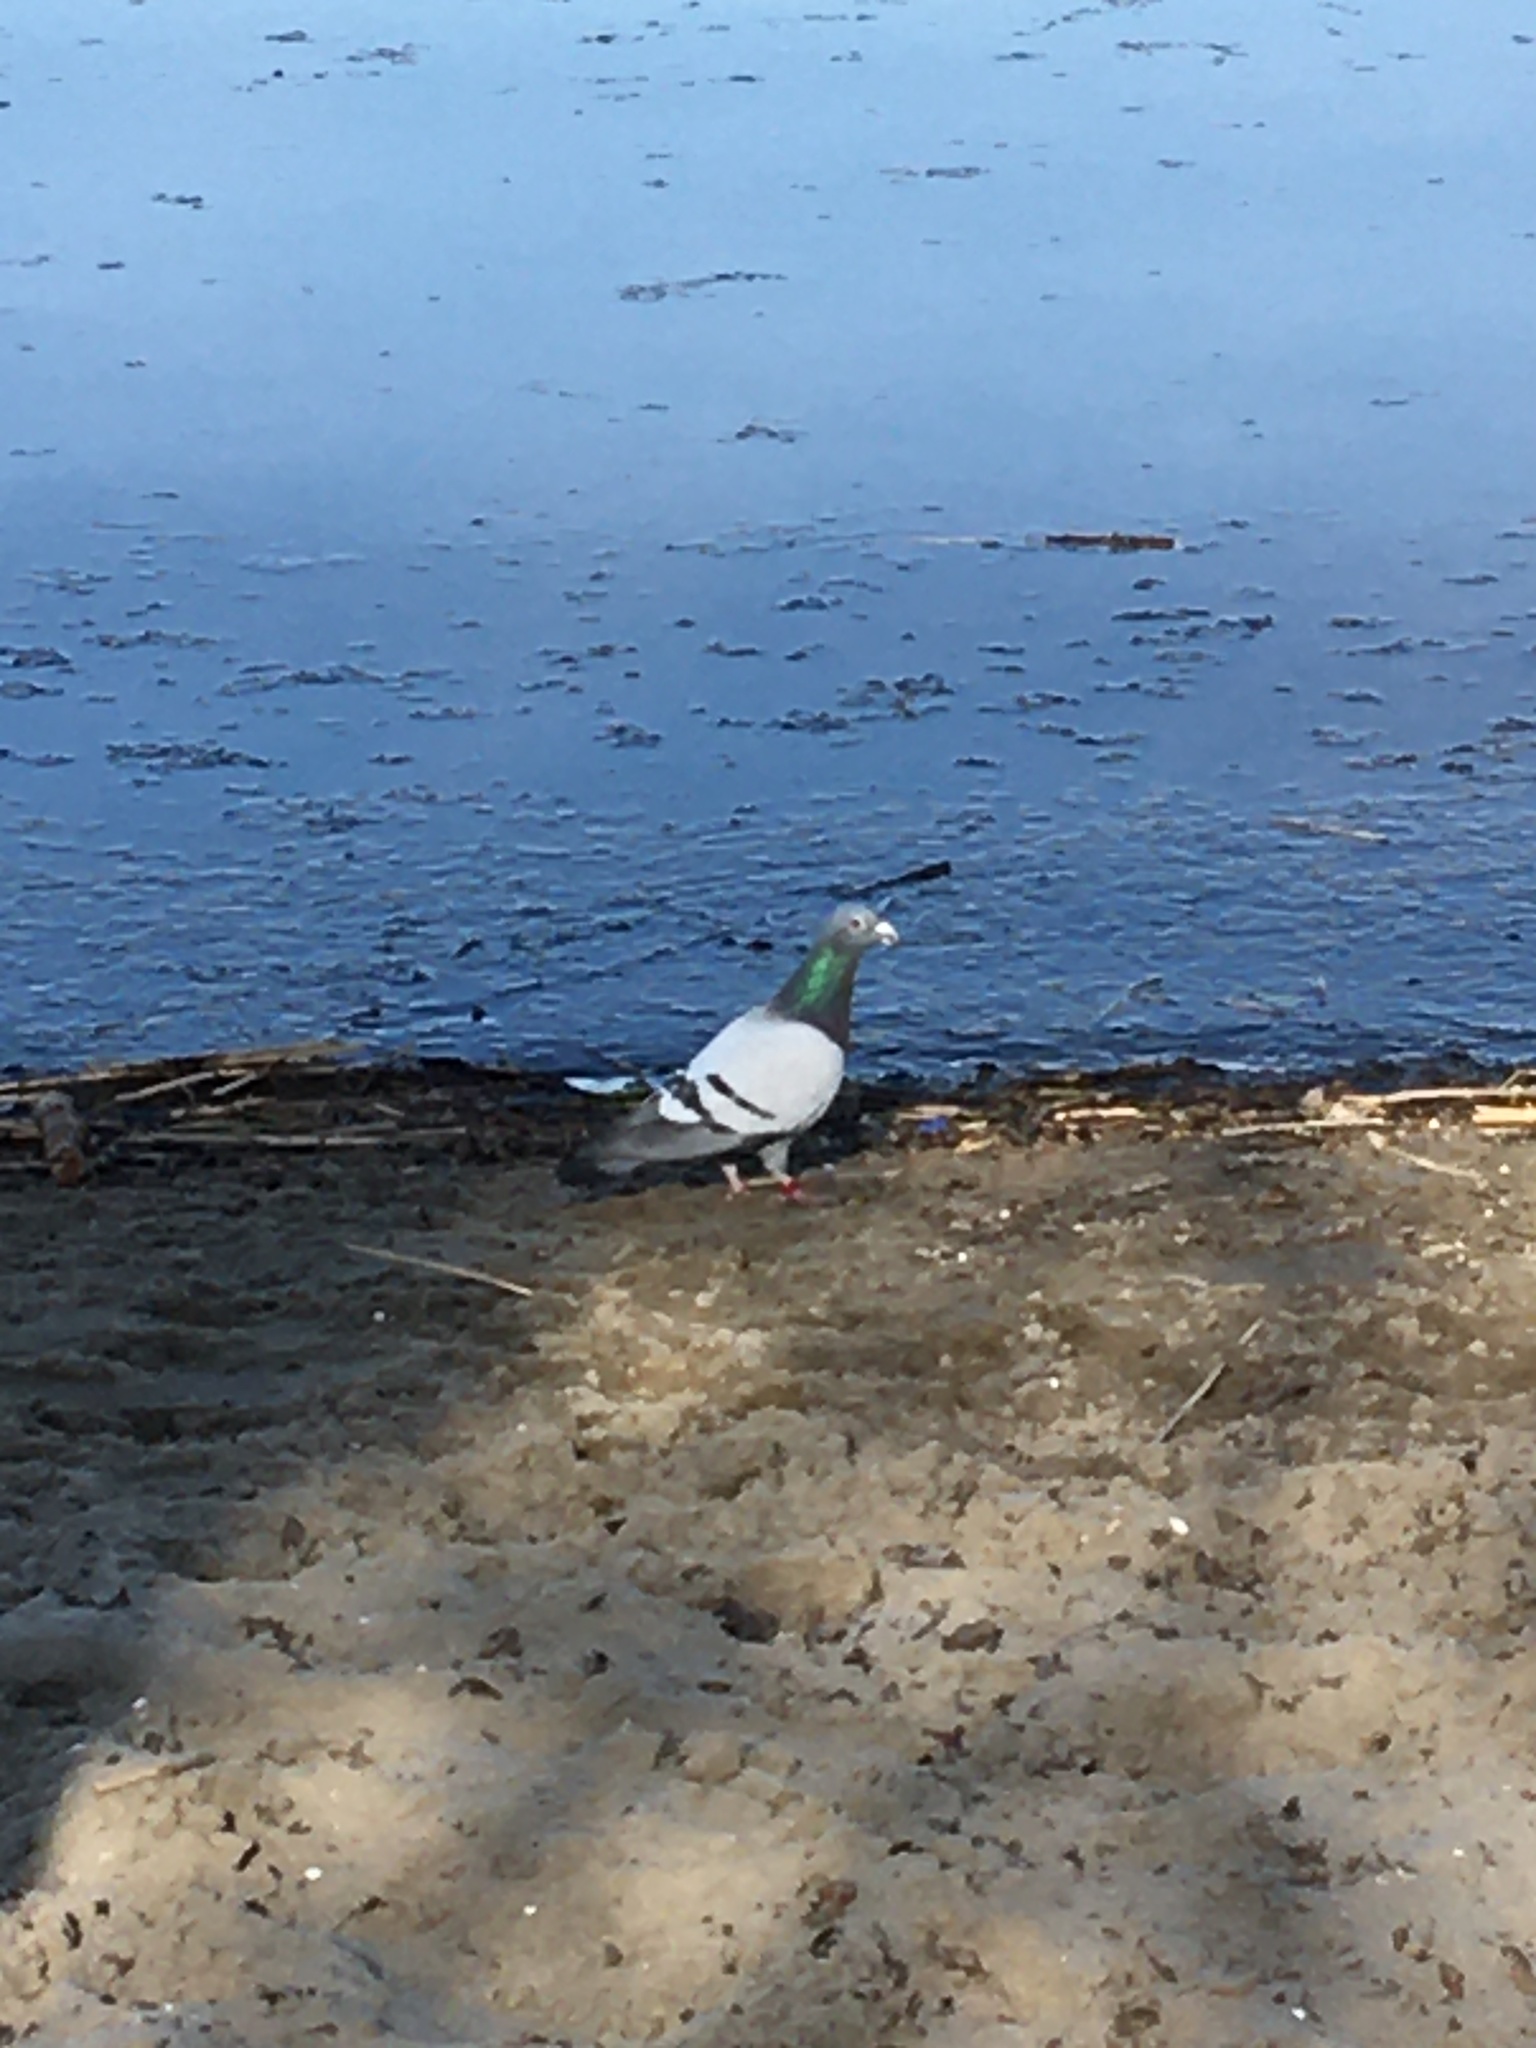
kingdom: Animalia
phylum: Chordata
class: Aves
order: Columbiformes
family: Columbidae
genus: Columba
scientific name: Columba livia
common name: Rock pigeon
